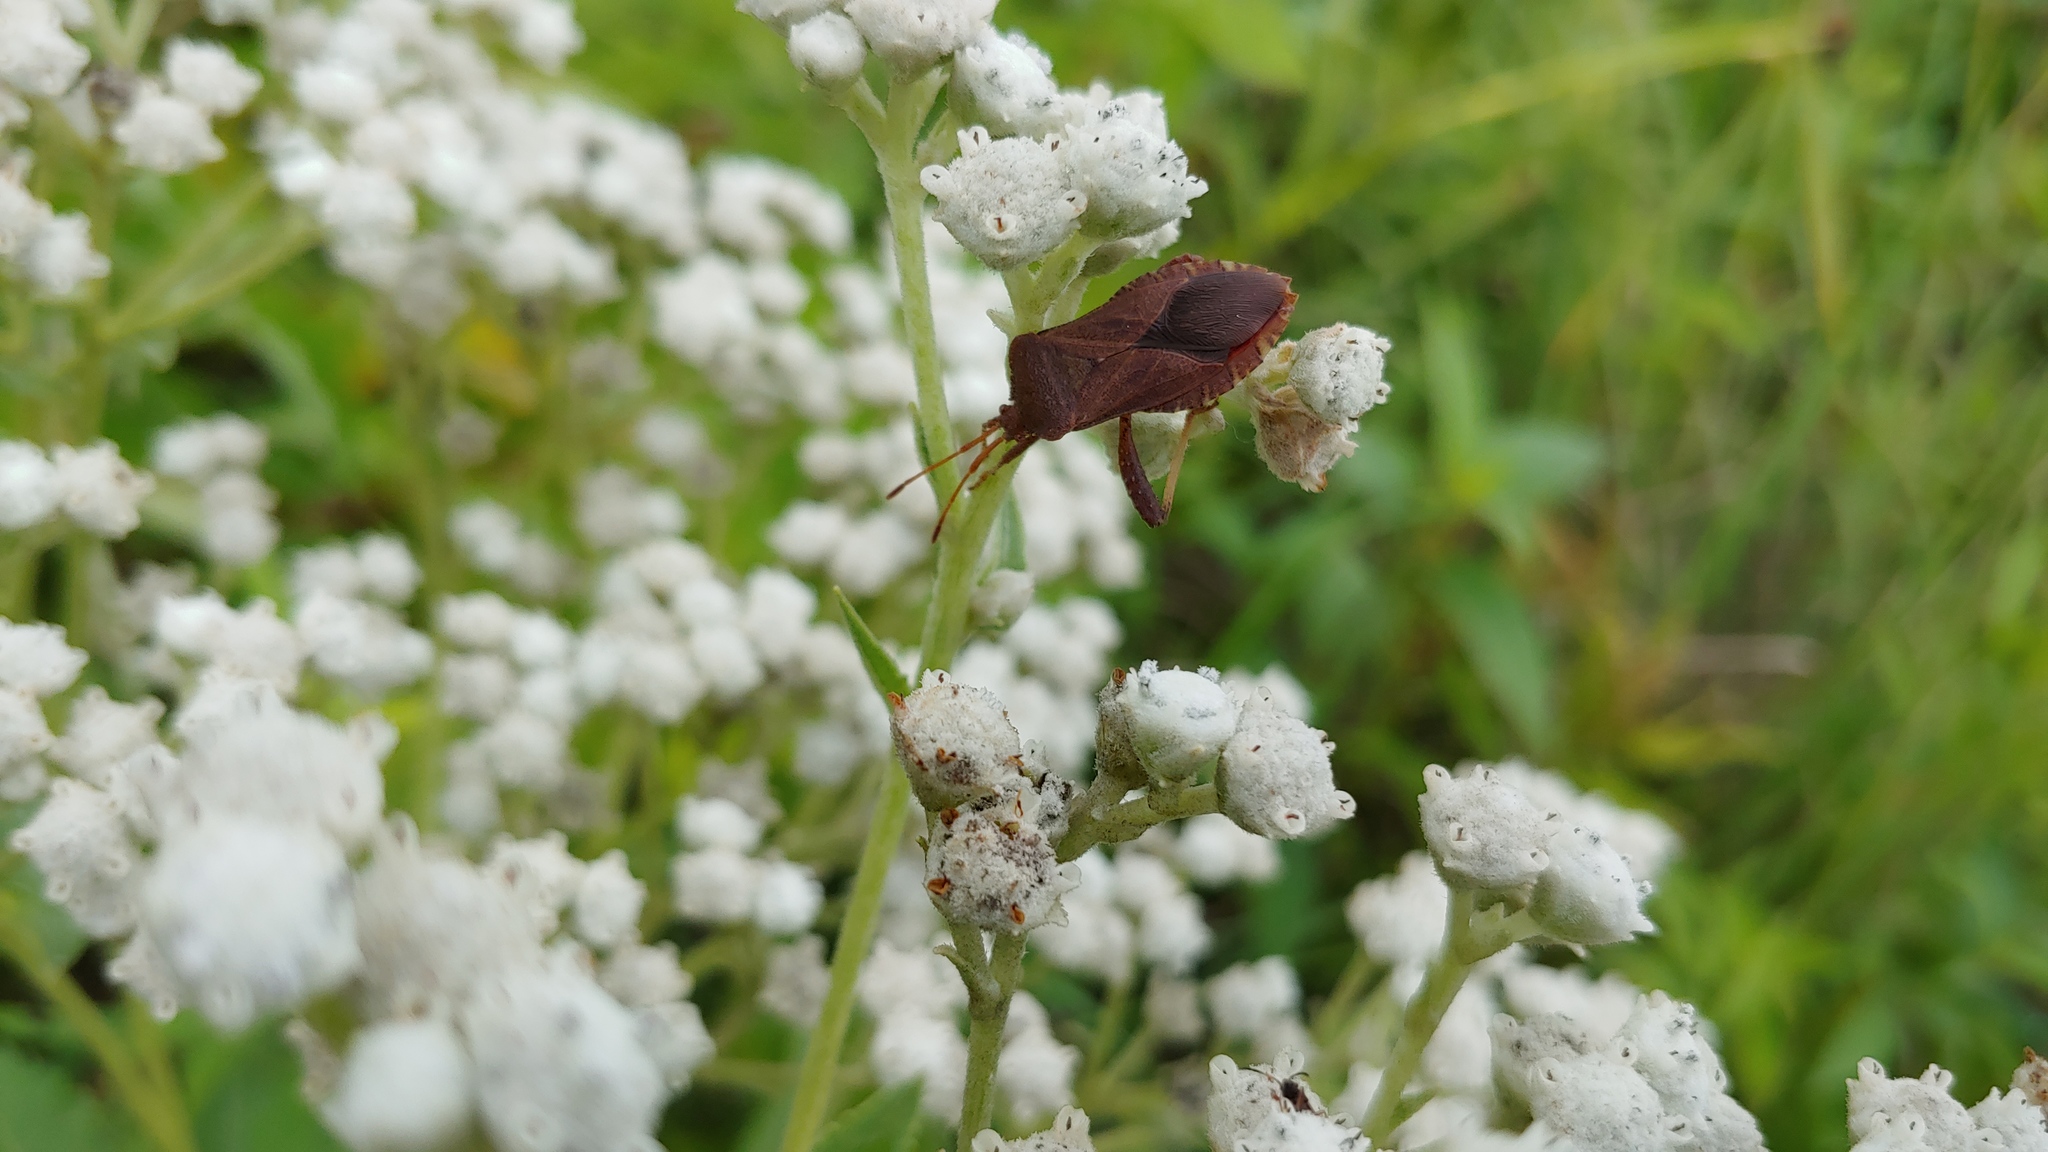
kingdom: Animalia
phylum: Arthropoda
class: Insecta
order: Hemiptera
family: Coreidae
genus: Euthochtha
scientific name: Euthochtha galeator
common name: Helmeted squash bug
